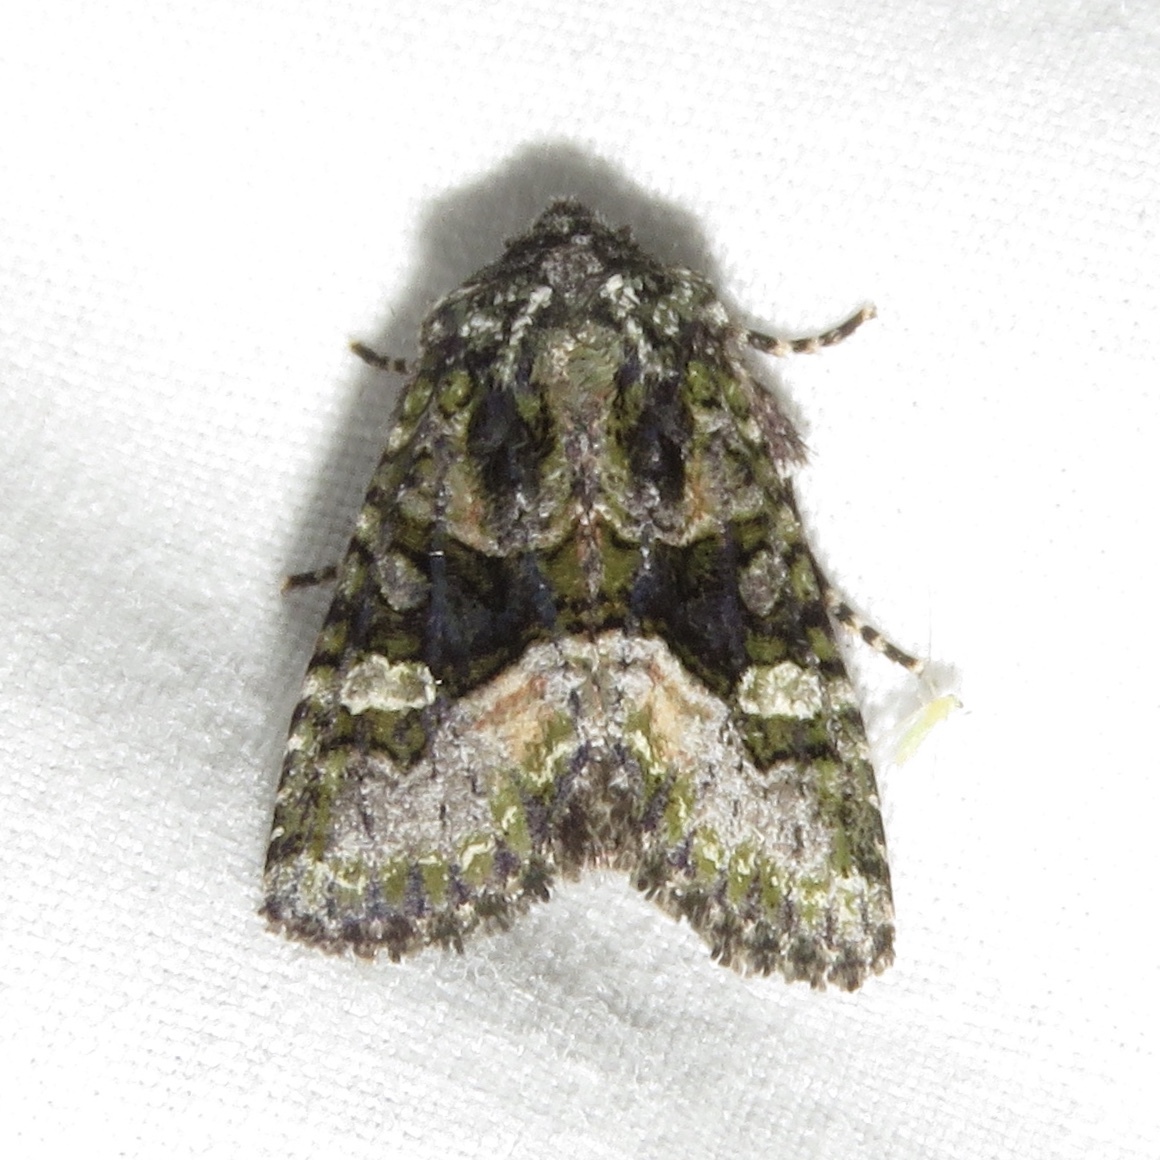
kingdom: Animalia
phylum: Arthropoda
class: Insecta
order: Lepidoptera
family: Noctuidae
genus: Lacinipolia
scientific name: Lacinipolia olivacea
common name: Olive arches moth
